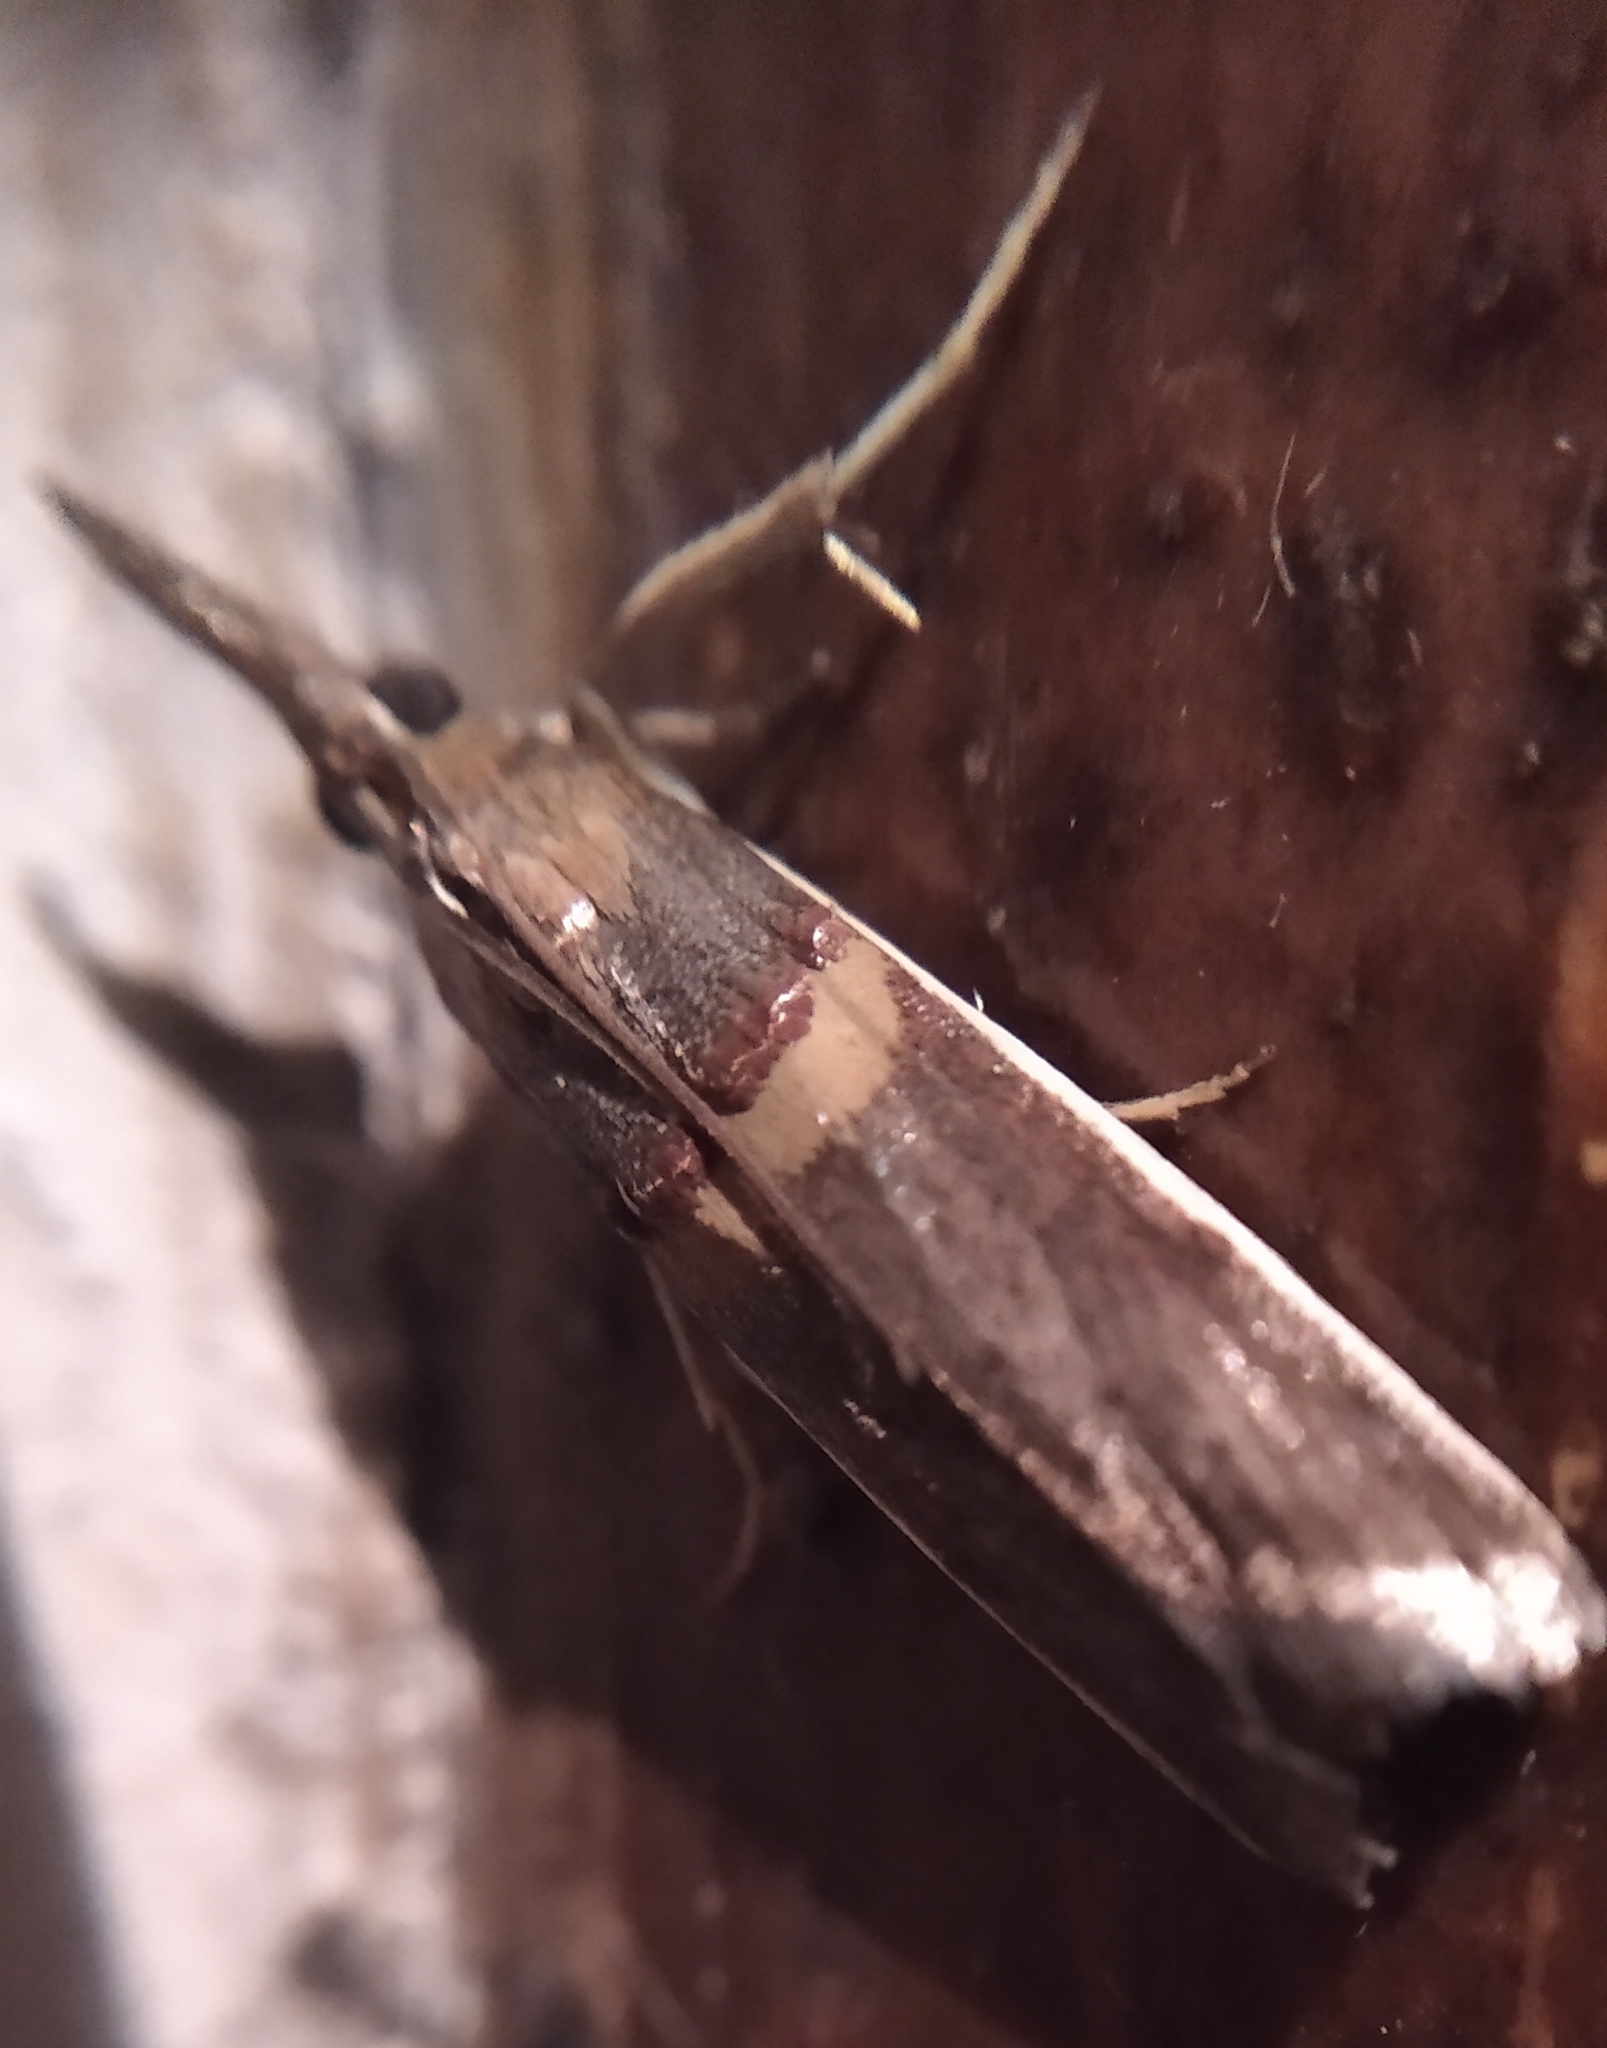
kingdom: Animalia
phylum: Arthropoda
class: Insecta
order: Lepidoptera
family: Pyralidae
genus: Etiella
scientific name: Etiella zinckenella
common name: Gold-banded etiella moth
